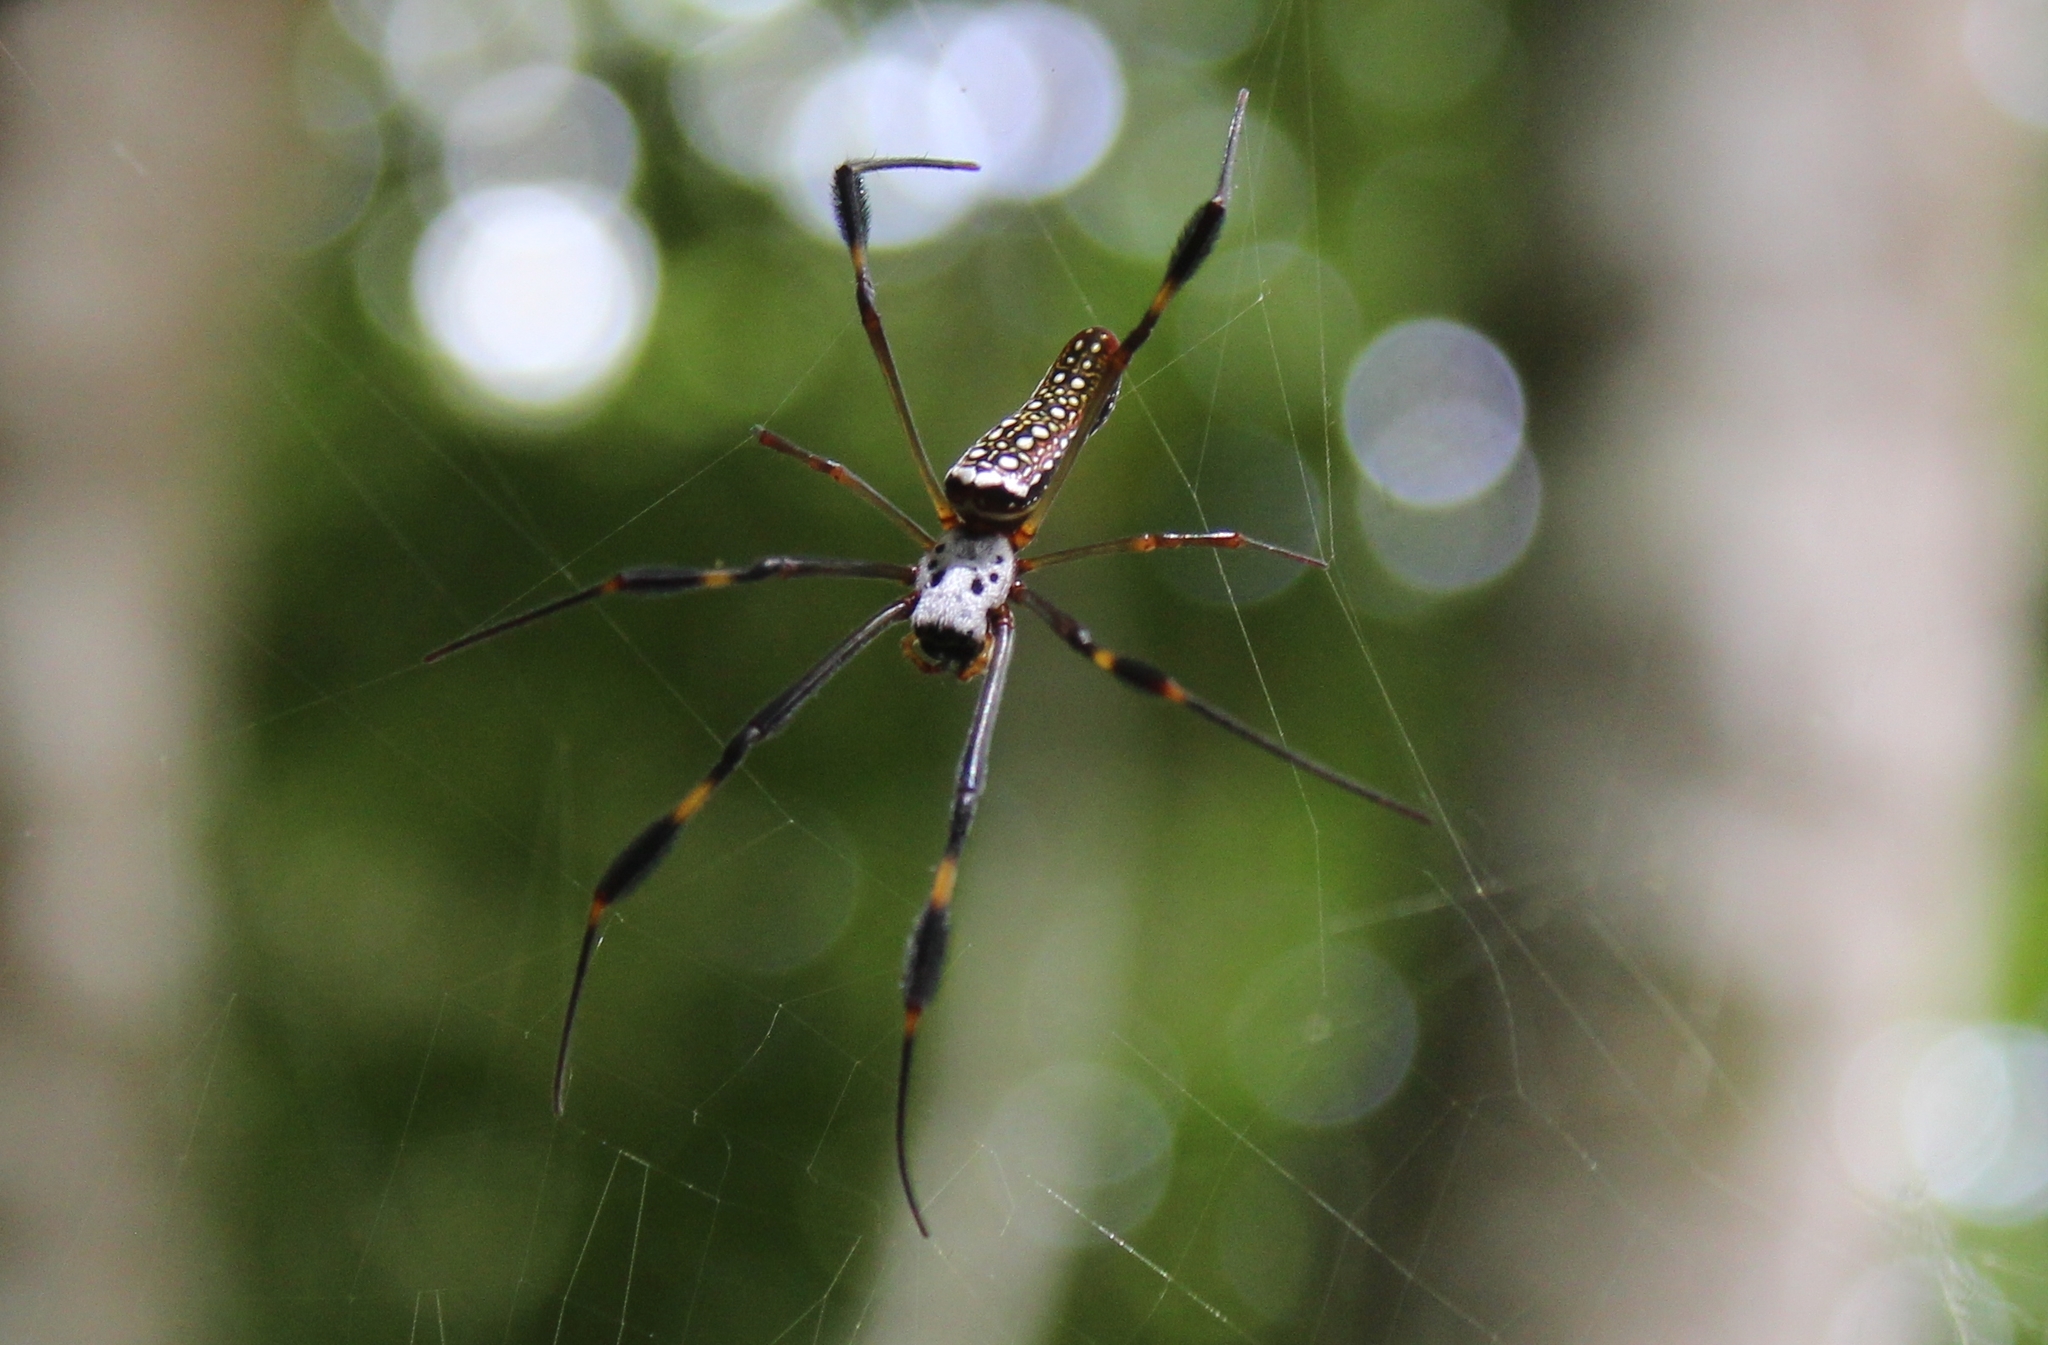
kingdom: Animalia
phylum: Arthropoda
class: Arachnida
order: Araneae
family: Araneidae
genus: Trichonephila
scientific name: Trichonephila clavipes
